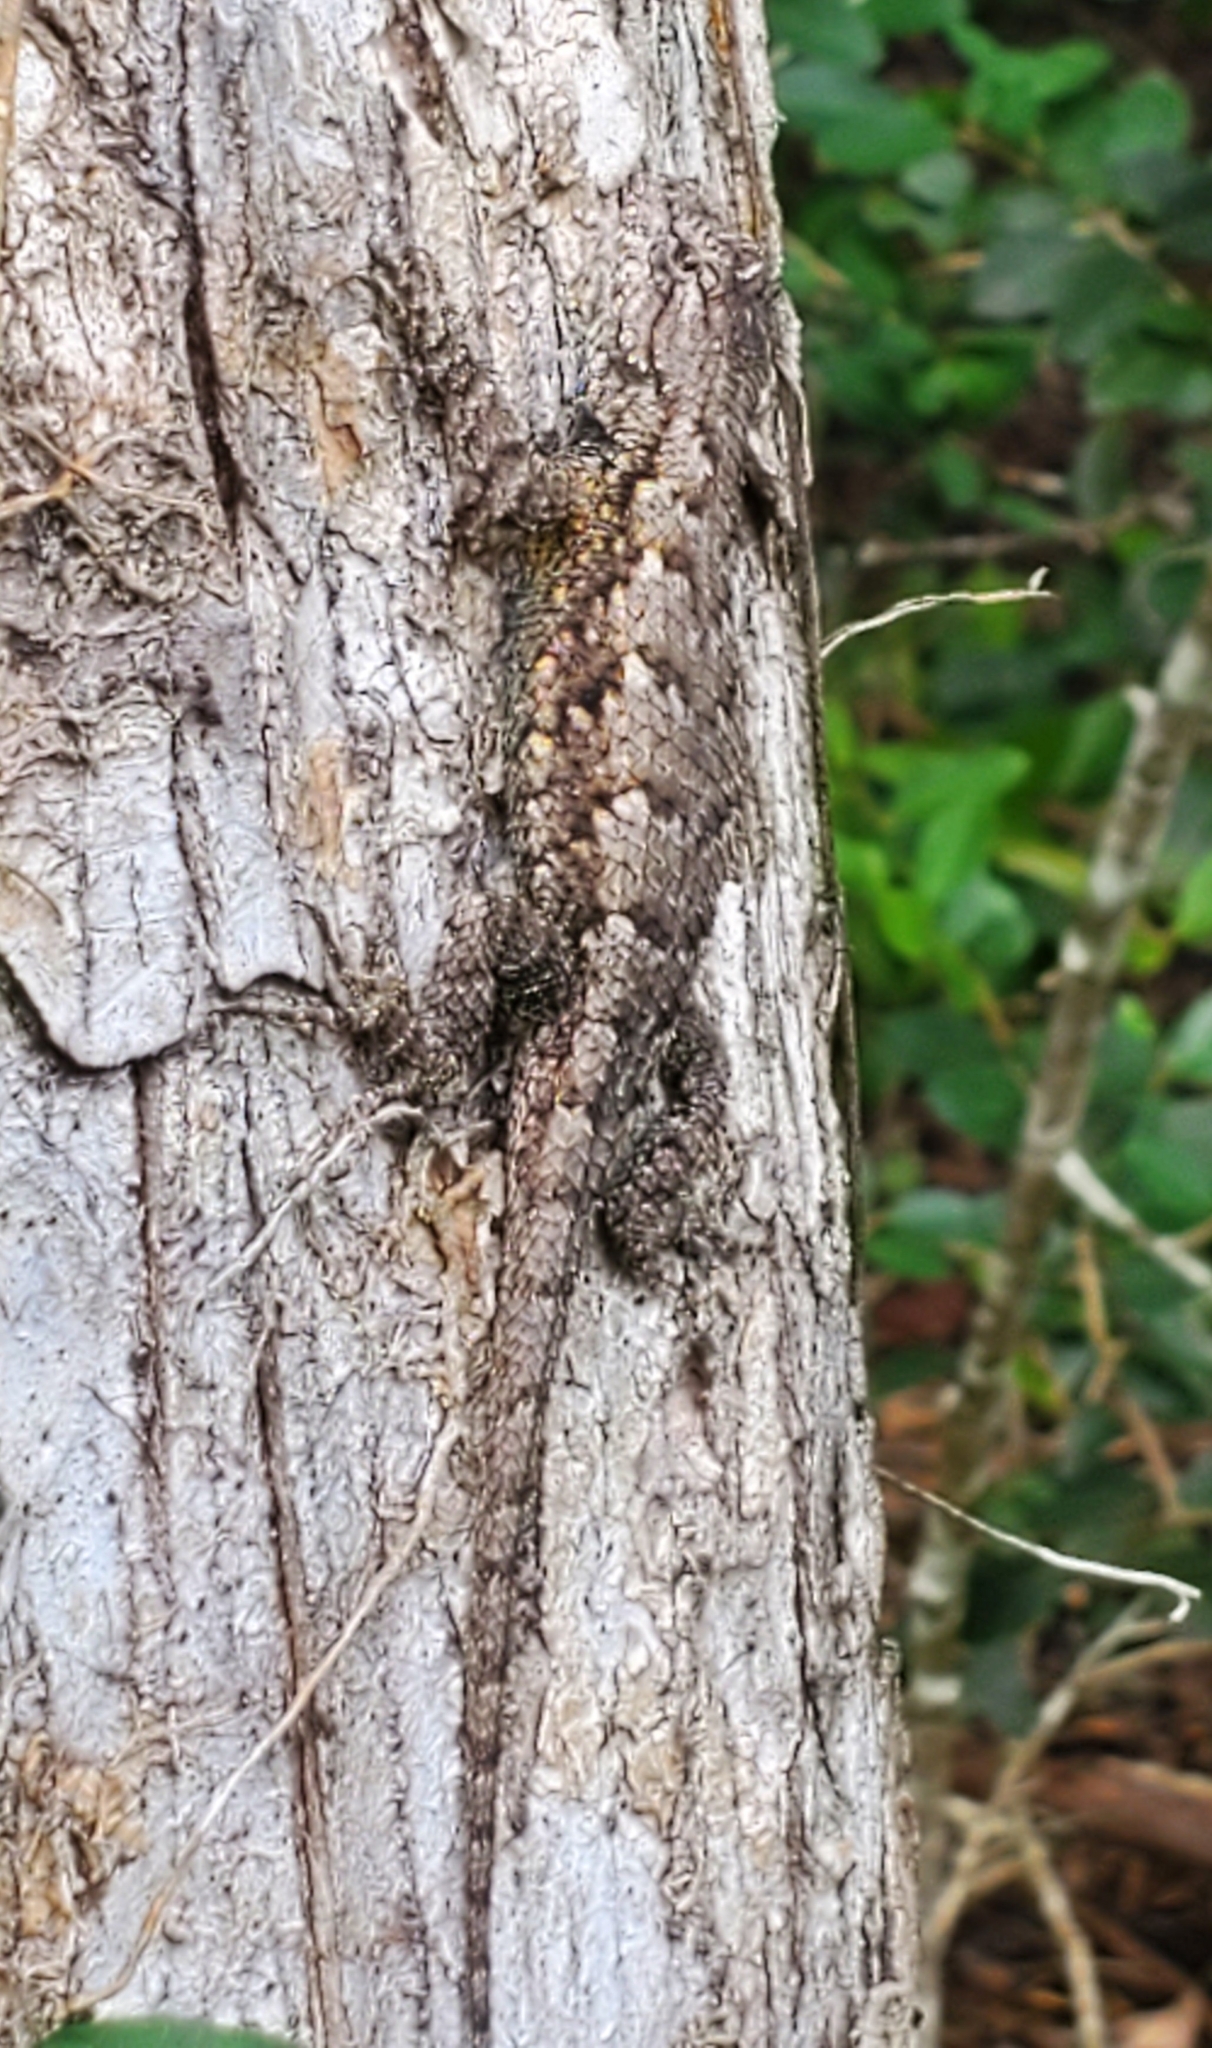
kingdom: Animalia
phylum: Chordata
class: Squamata
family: Phrynosomatidae
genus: Sceloporus
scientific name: Sceloporus undulatus
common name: Eastern fence lizard
